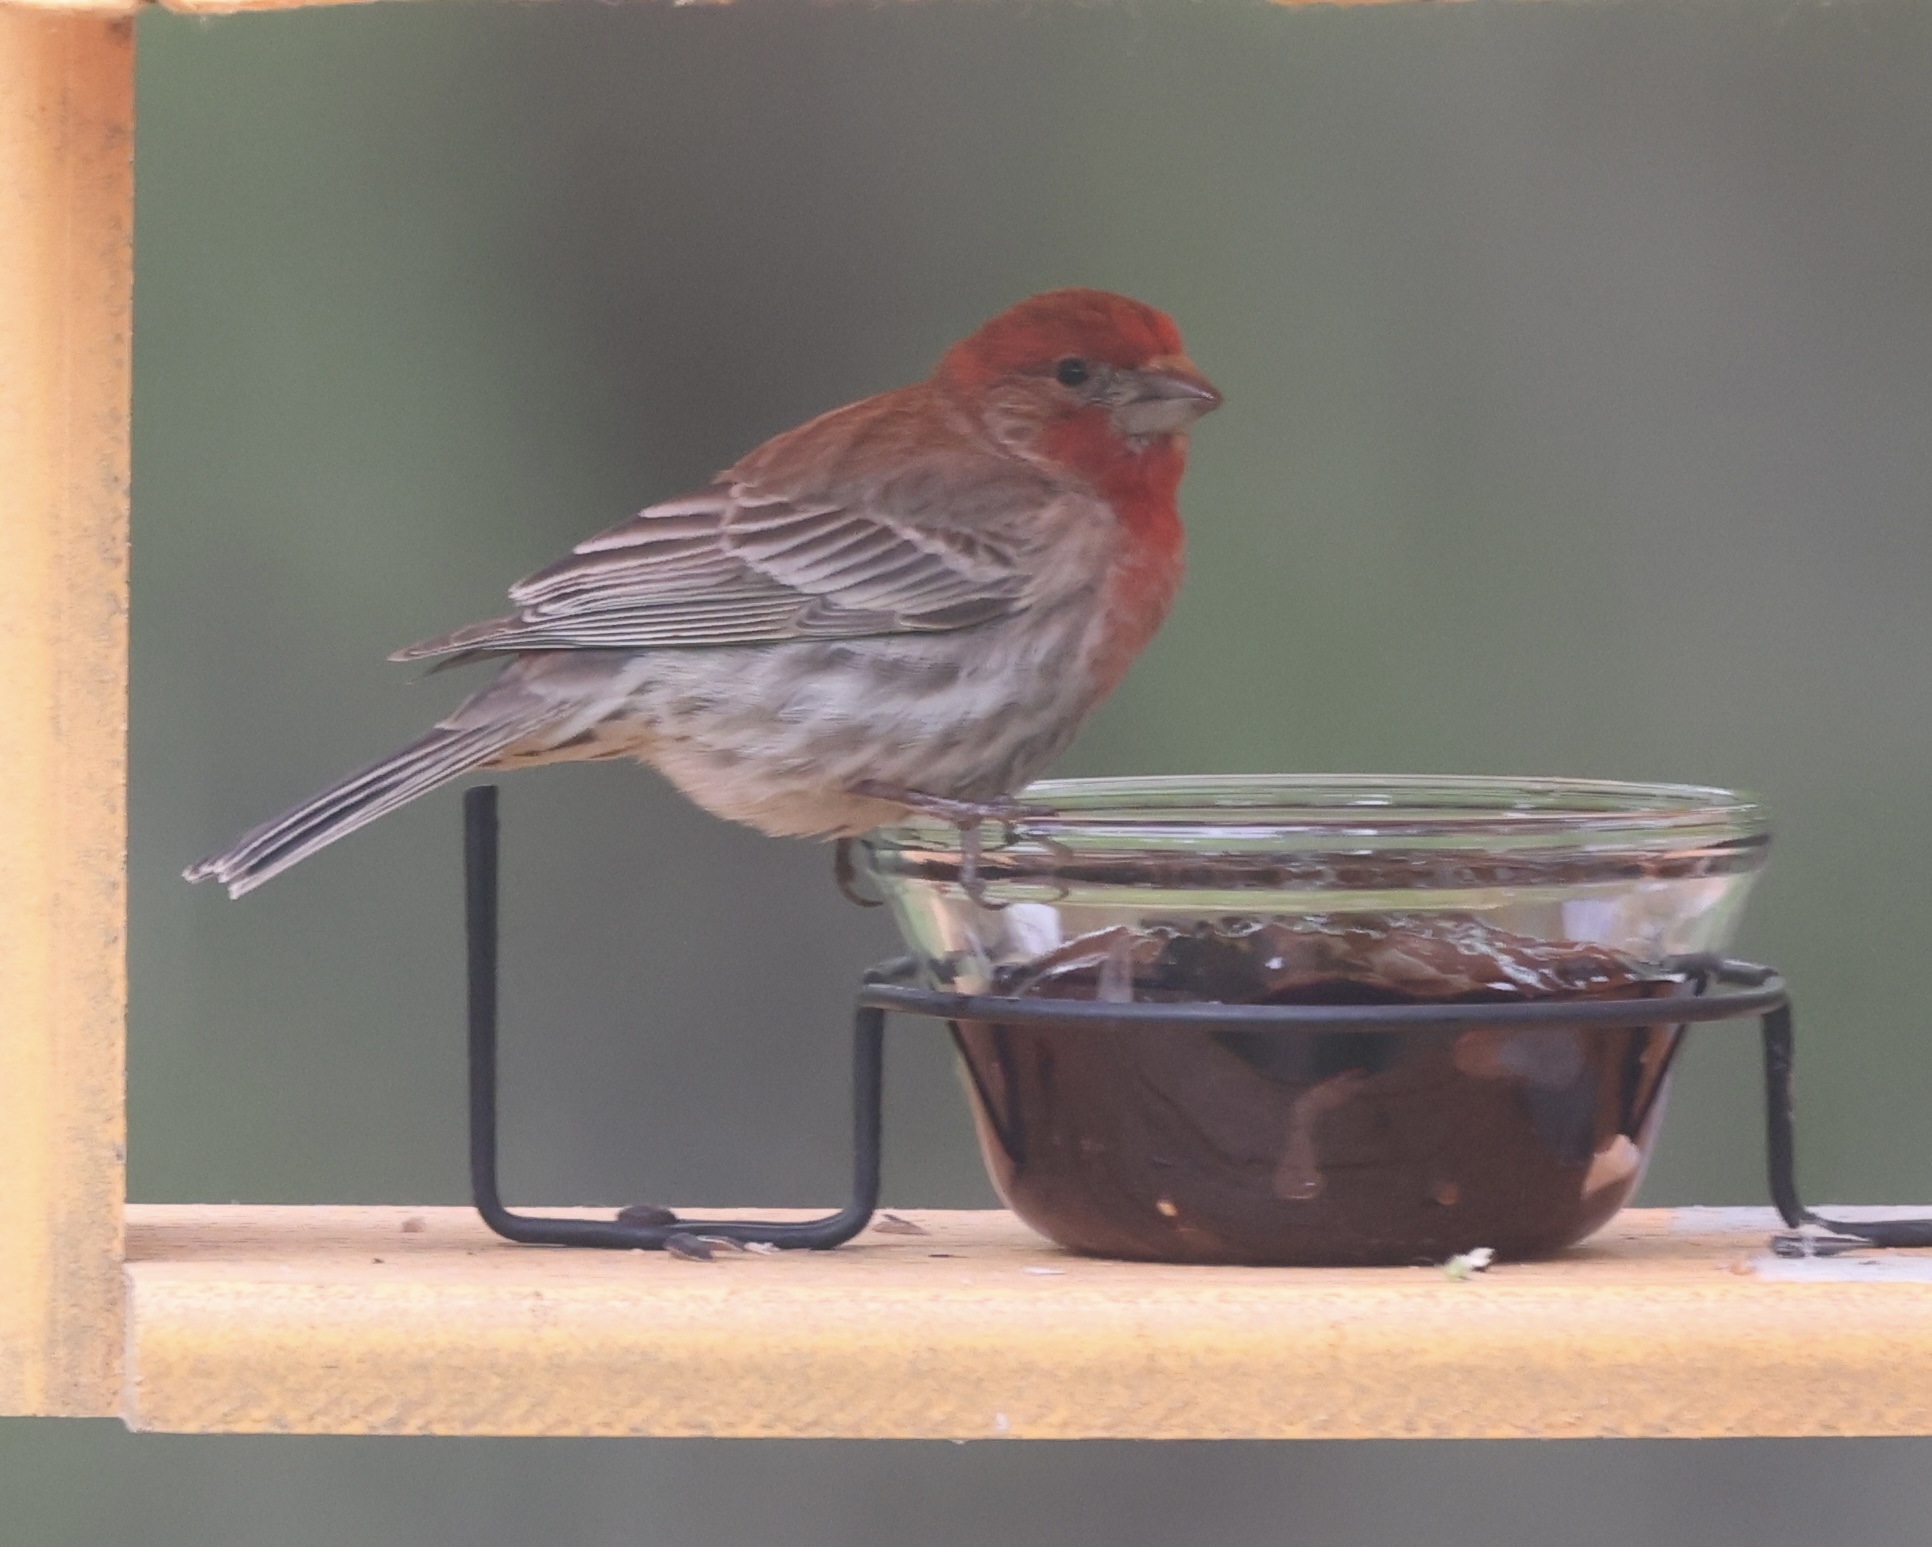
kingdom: Animalia
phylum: Chordata
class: Aves
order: Passeriformes
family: Fringillidae
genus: Haemorhous
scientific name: Haemorhous mexicanus
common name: House finch
